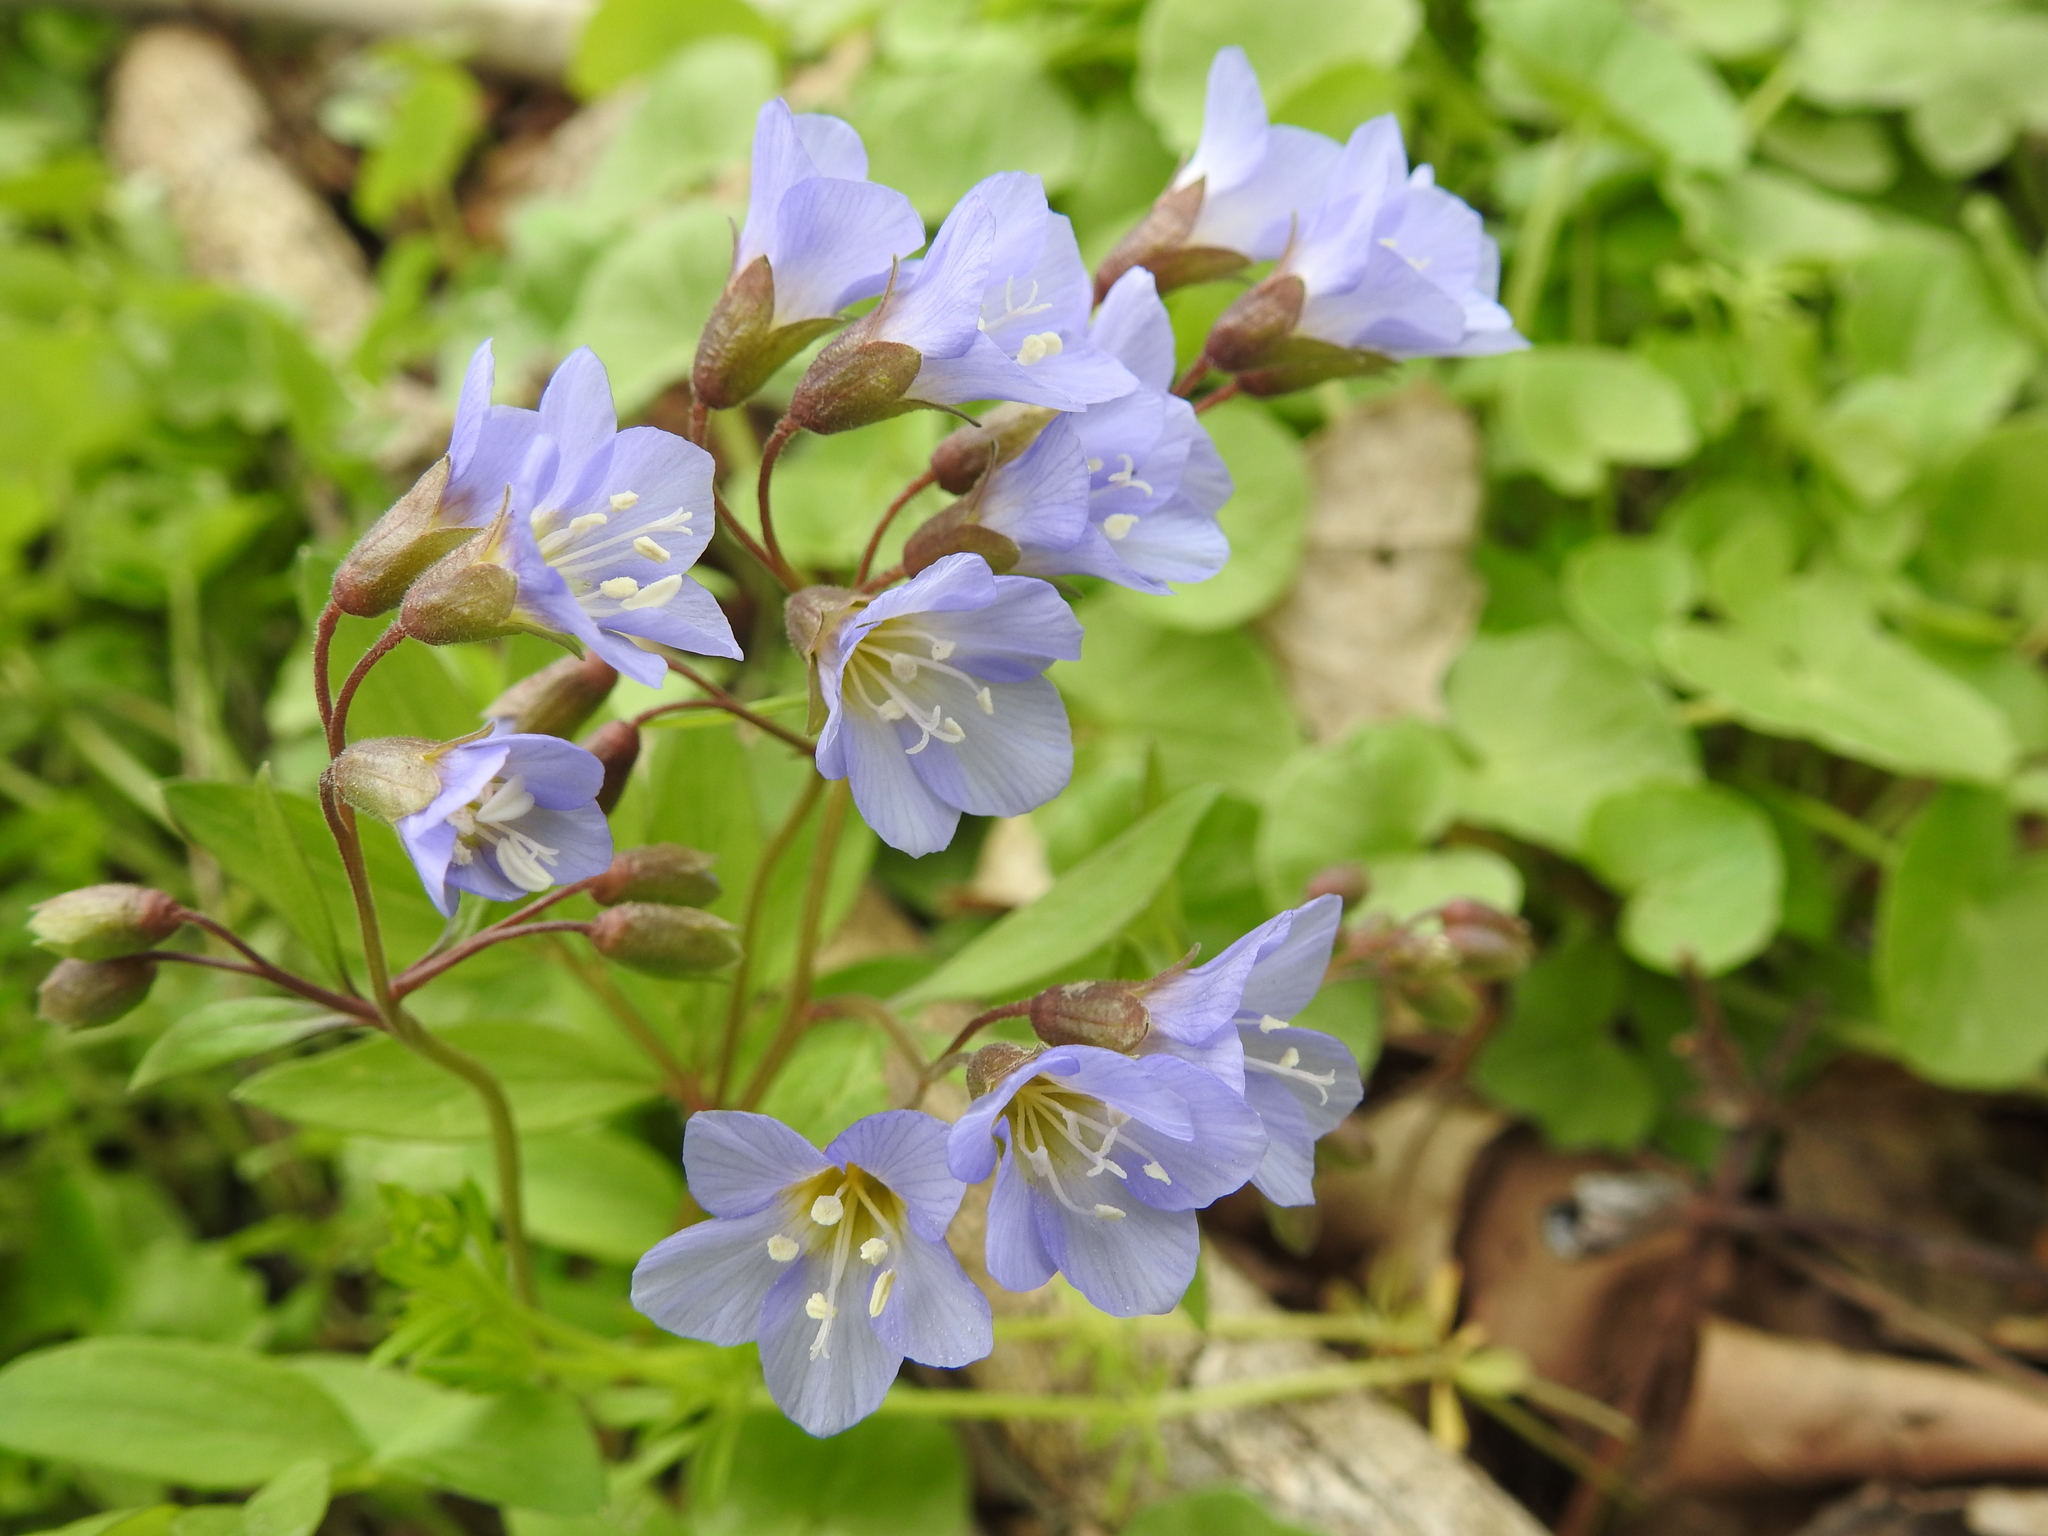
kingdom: Plantae
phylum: Tracheophyta
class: Magnoliopsida
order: Ericales
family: Polemoniaceae
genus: Polemonium
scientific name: Polemonium reptans
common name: Creeping jacob's-ladder
